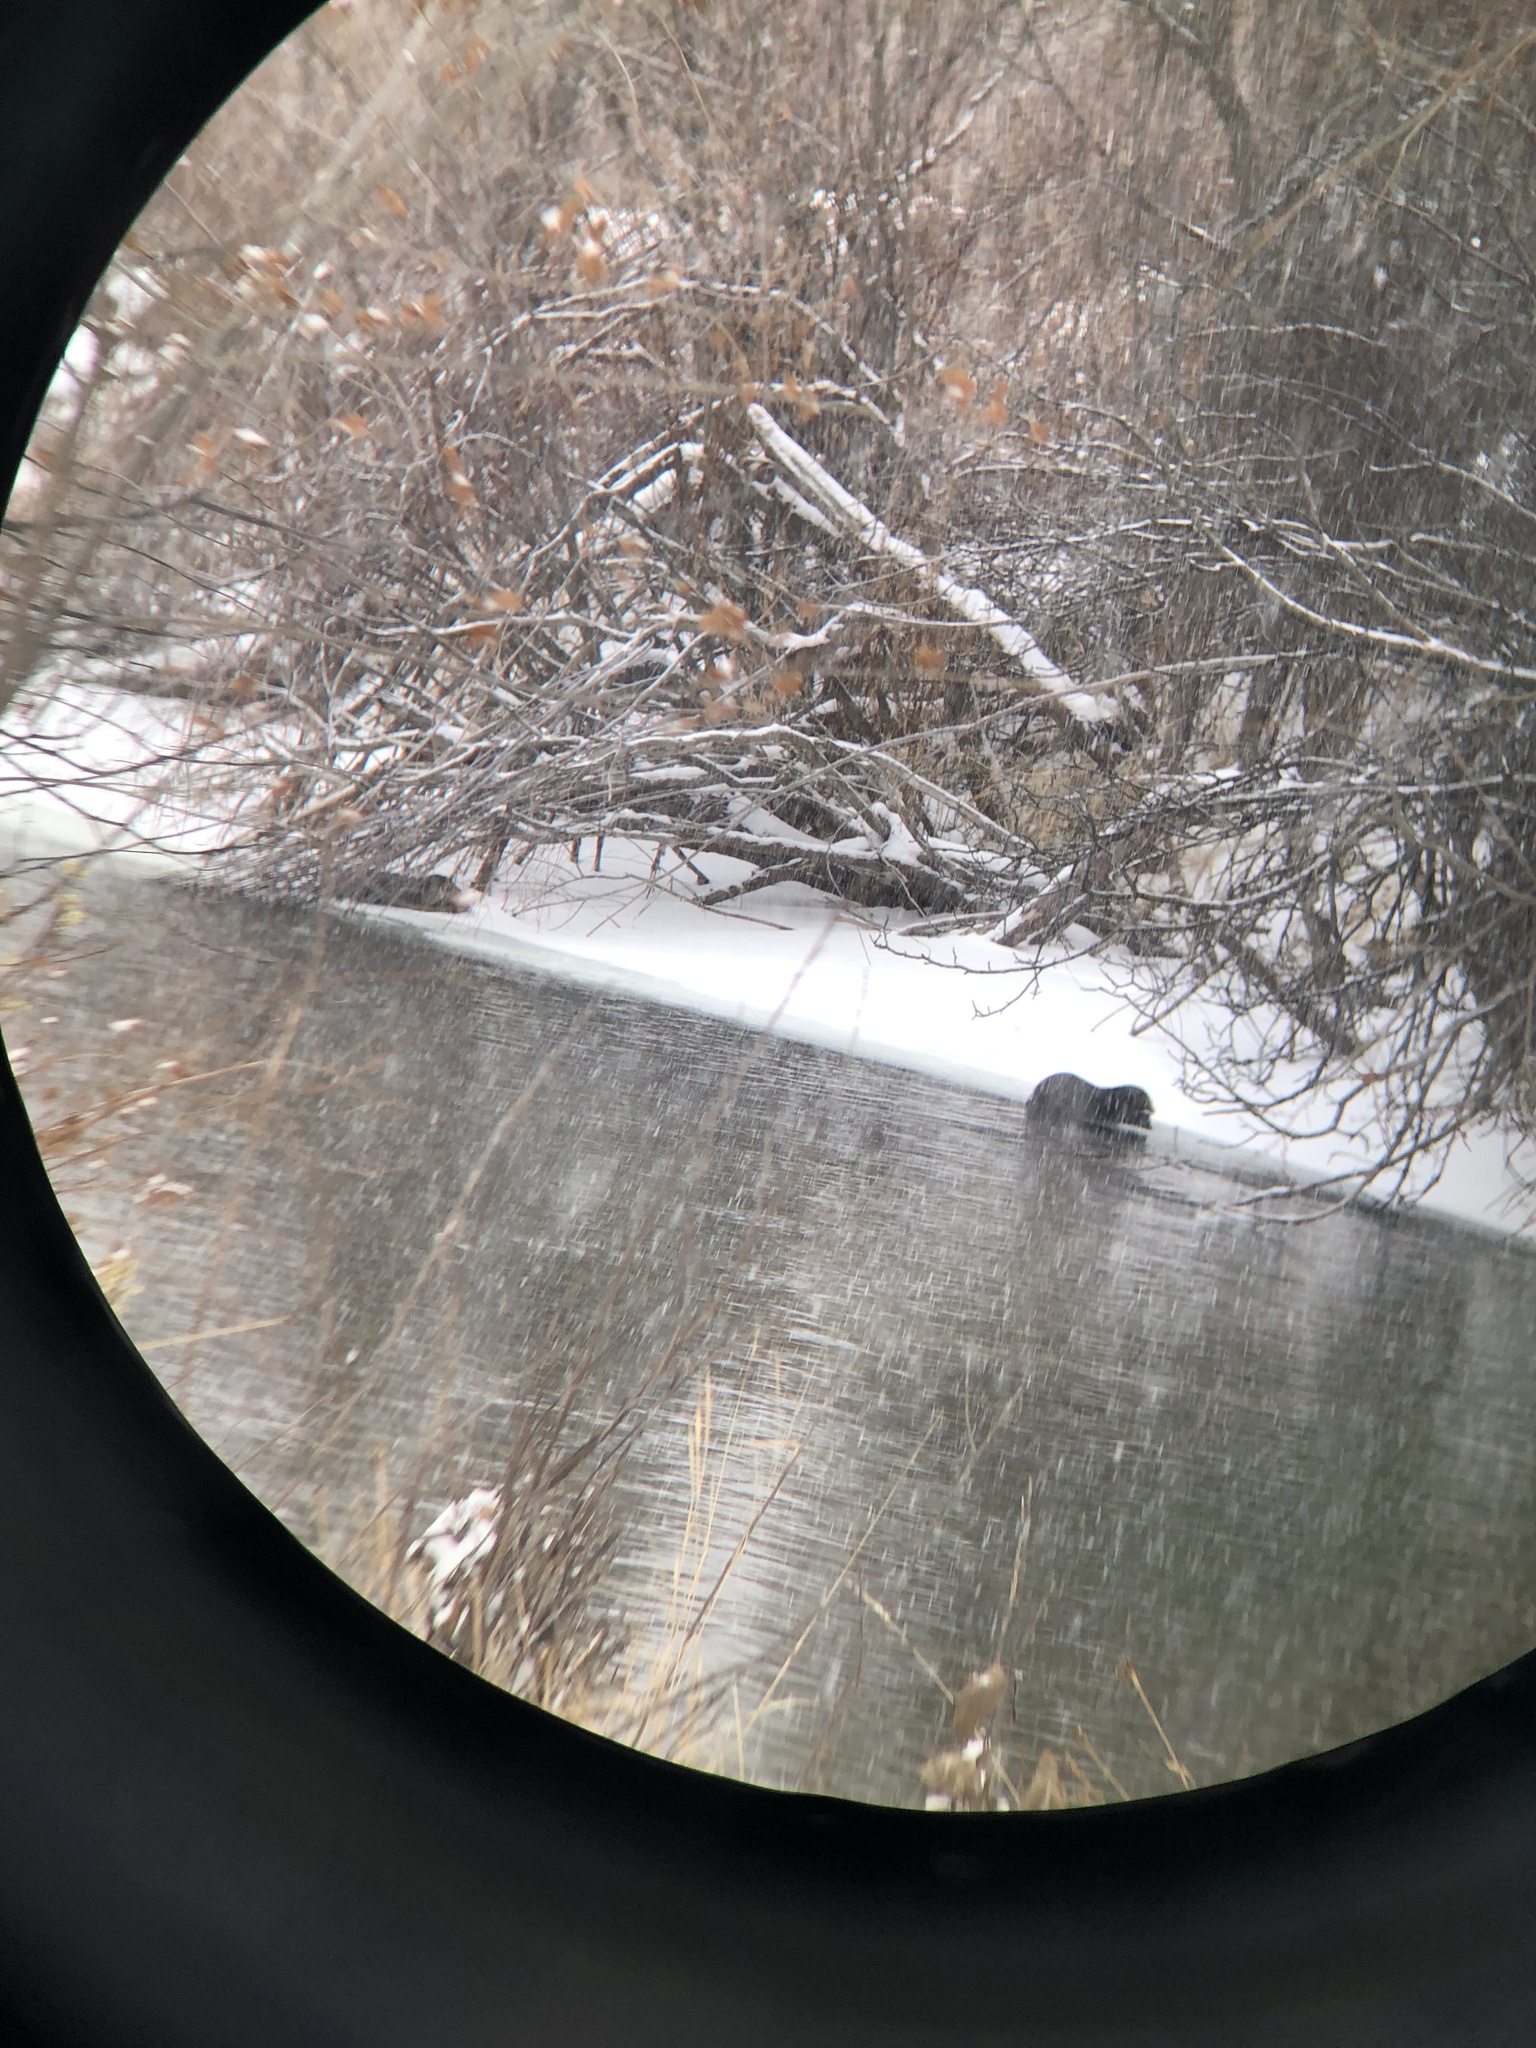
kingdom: Animalia
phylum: Chordata
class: Mammalia
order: Carnivora
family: Mustelidae
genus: Lontra
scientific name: Lontra canadensis
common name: North american river otter
